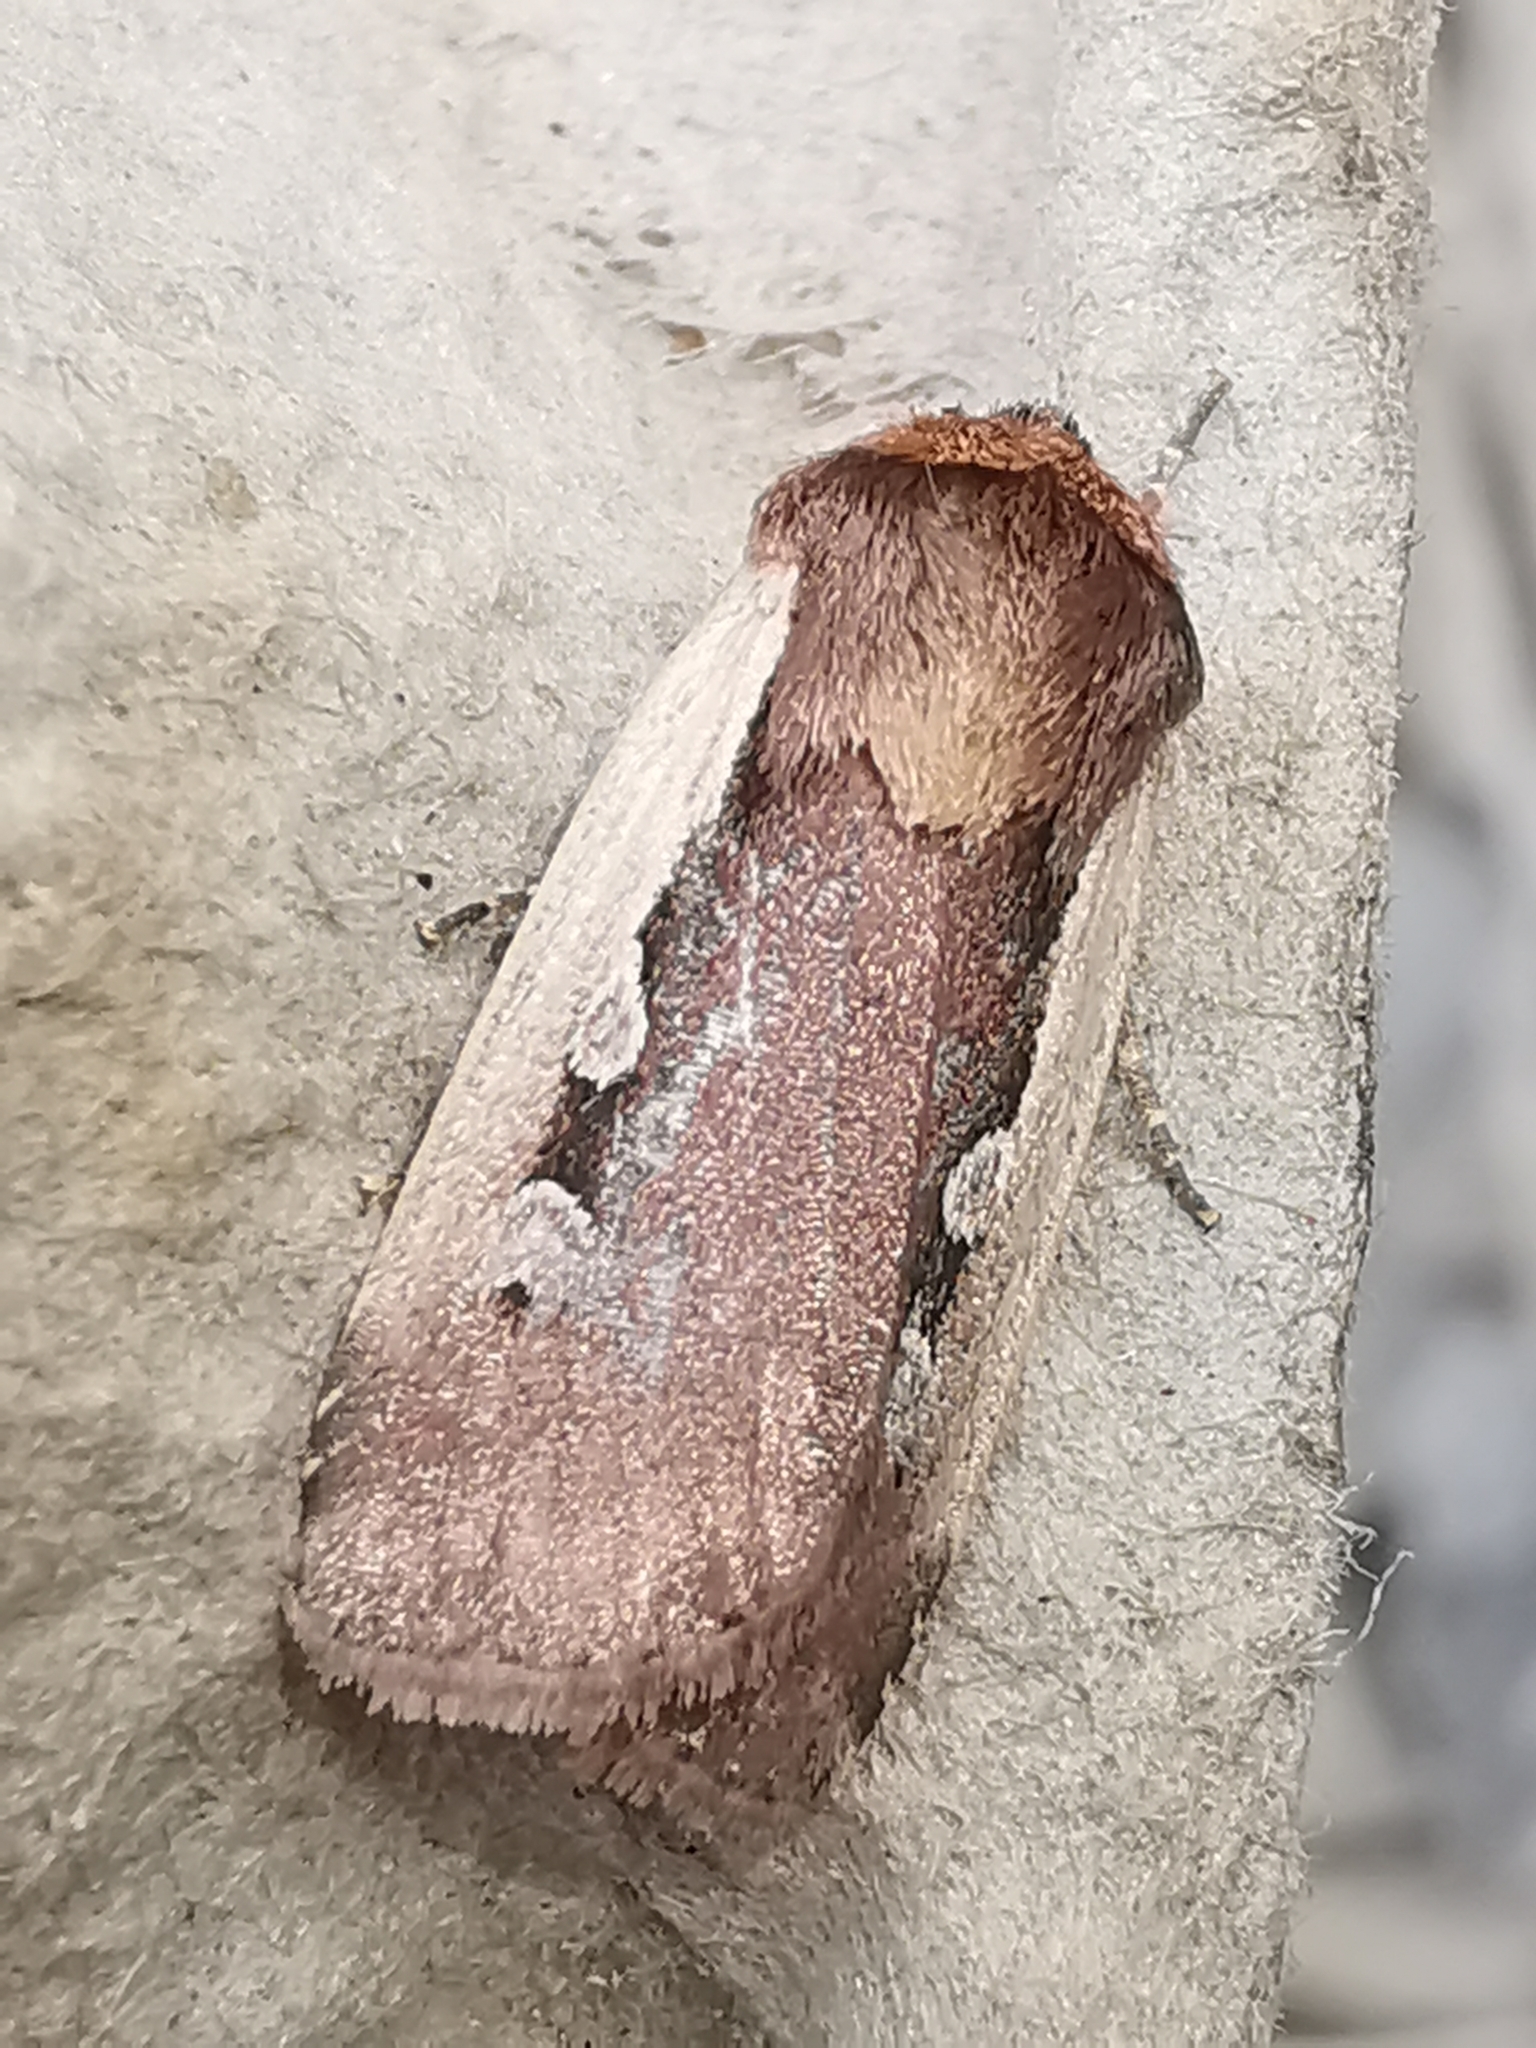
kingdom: Animalia
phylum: Arthropoda
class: Insecta
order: Lepidoptera
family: Noctuidae
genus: Ochropleura
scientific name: Ochropleura plecta
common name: Flame shoulder
